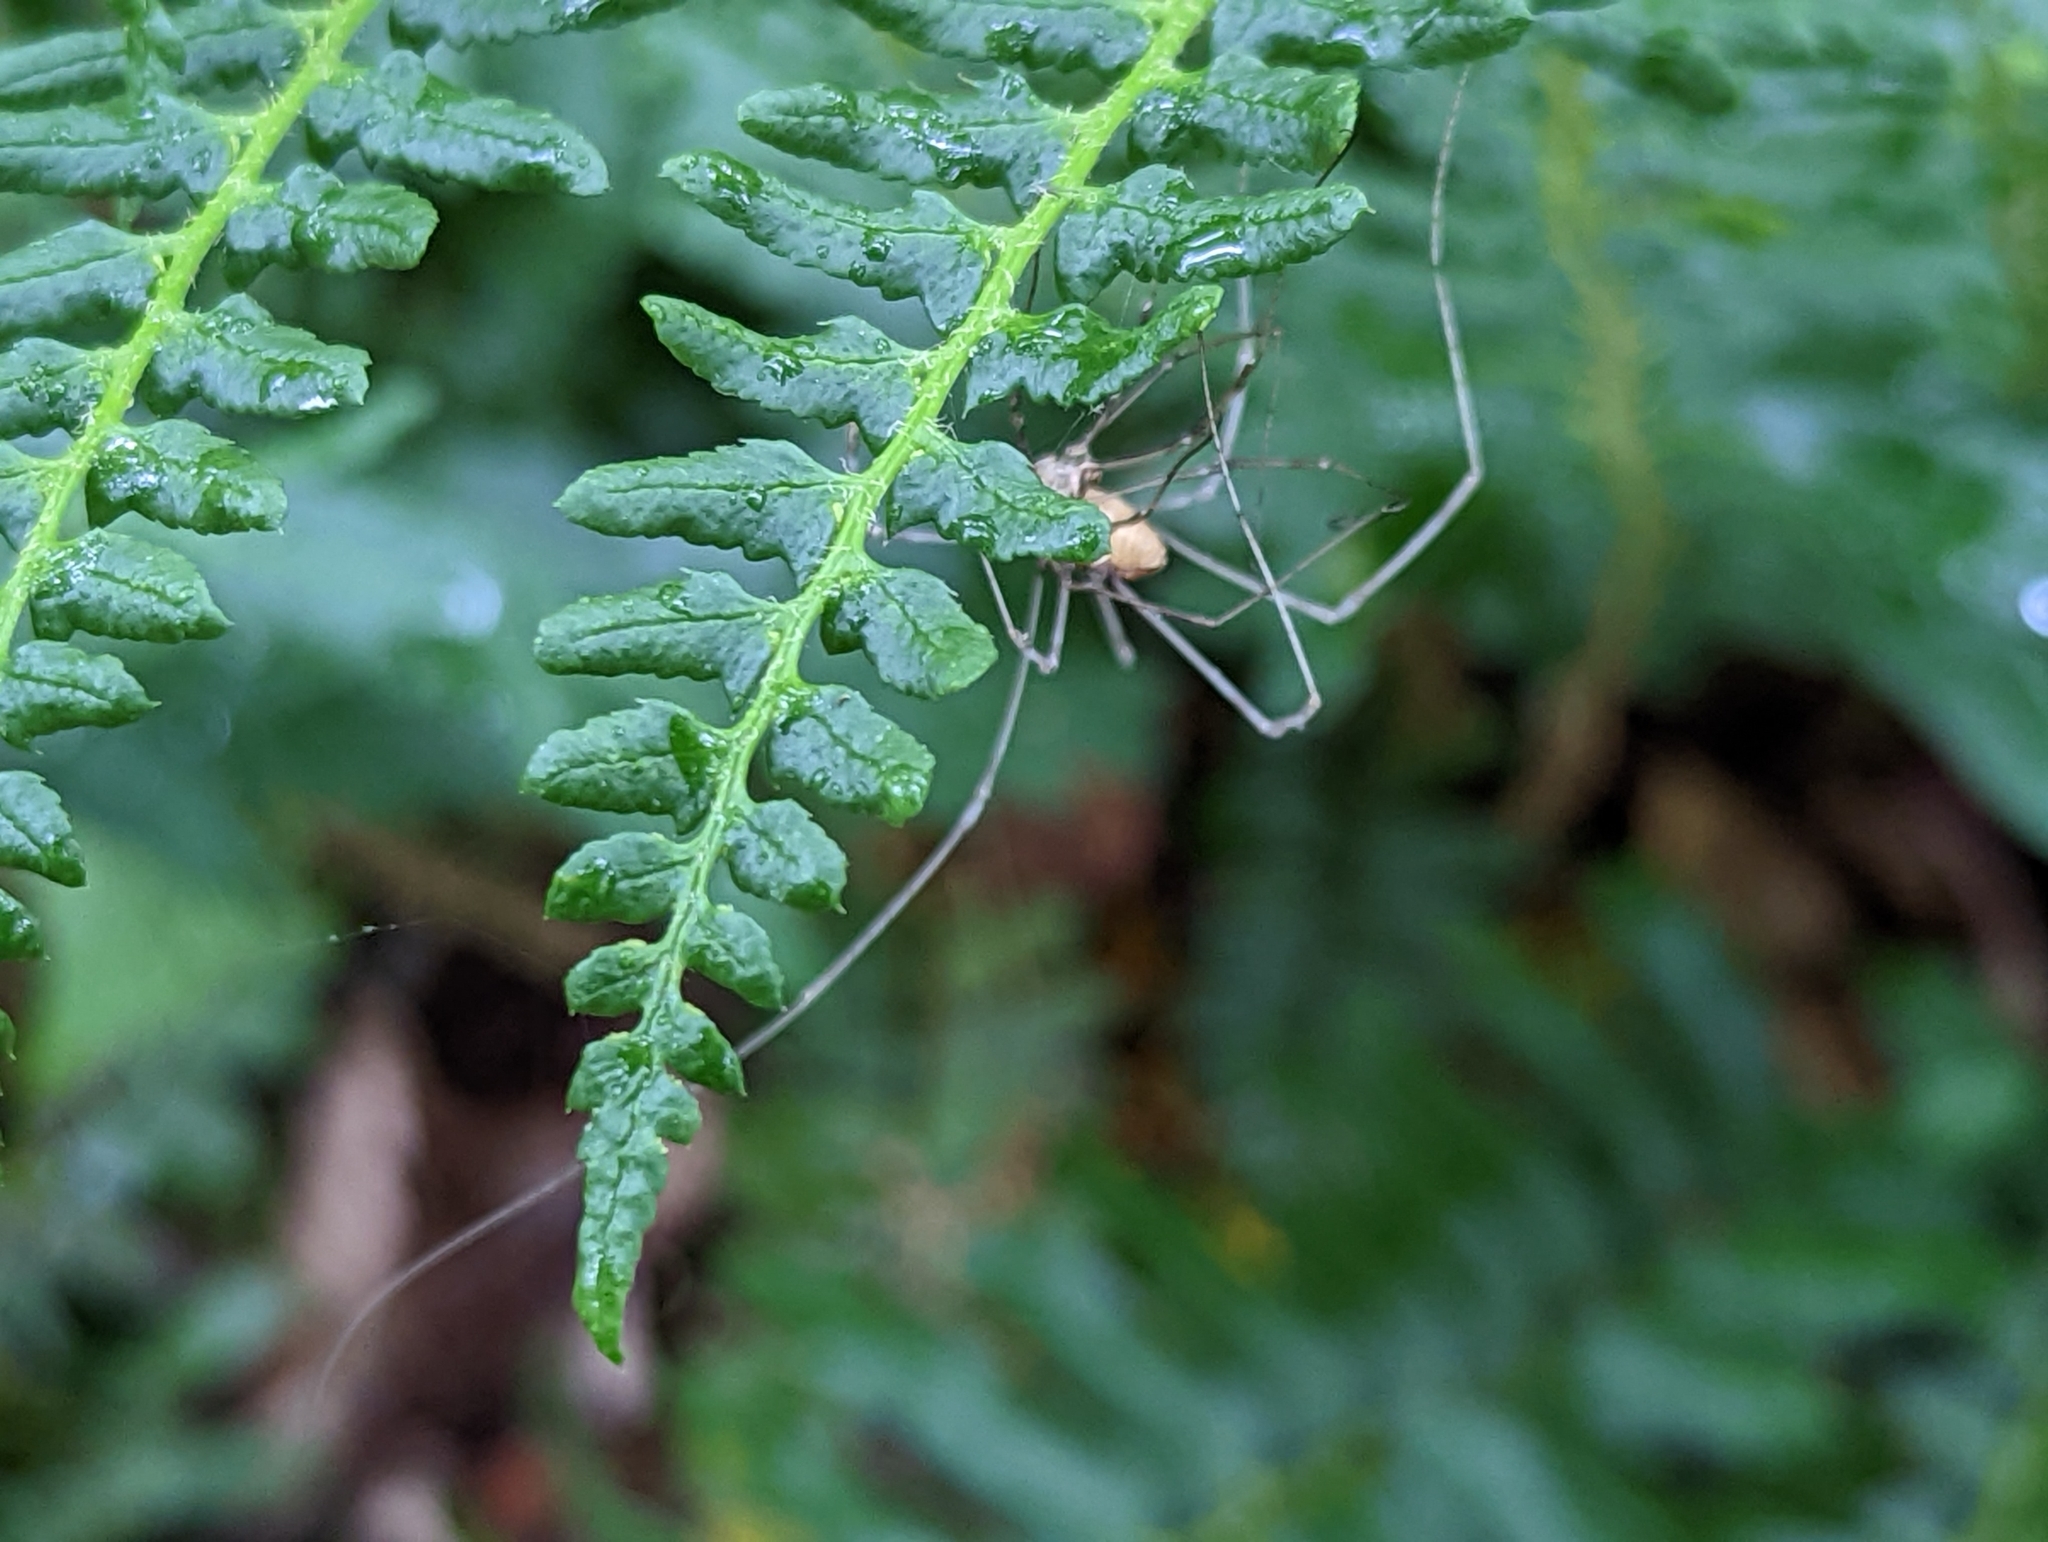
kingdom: Plantae
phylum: Tracheophyta
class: Polypodiopsida
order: Polypodiales
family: Dryopteridaceae
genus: Polystichum
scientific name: Polystichum acrostichoides
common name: Christmas fern
